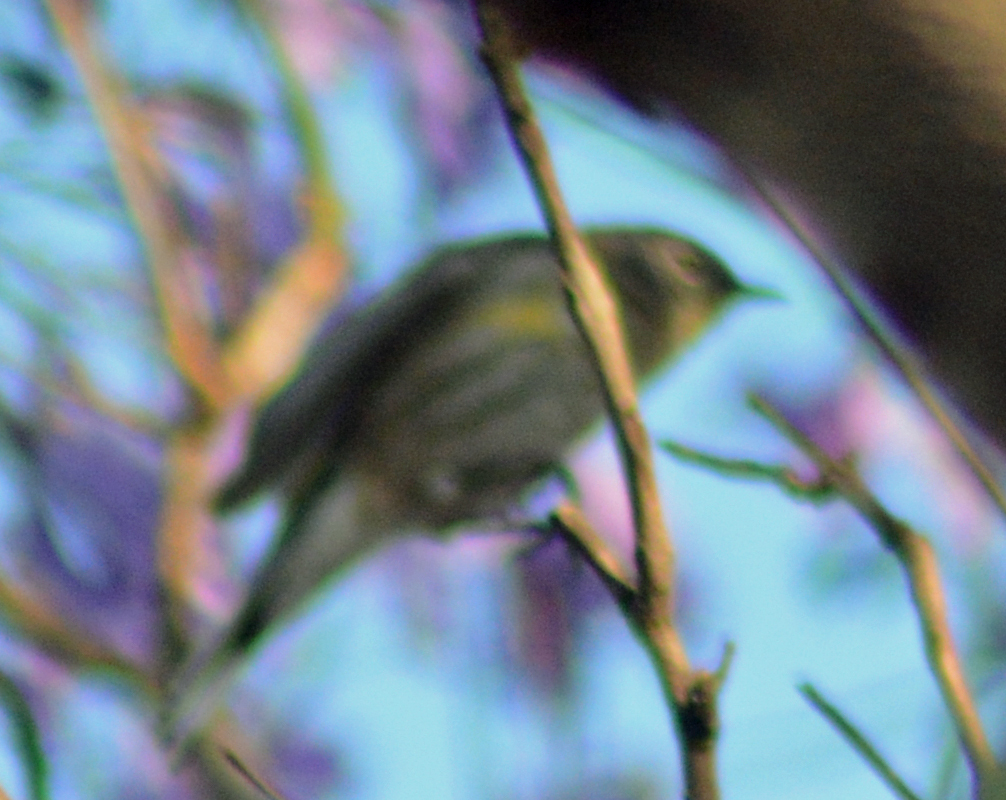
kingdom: Animalia
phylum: Chordata
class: Aves
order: Passeriformes
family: Parulidae
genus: Setophaga
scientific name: Setophaga coronata
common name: Myrtle warbler
